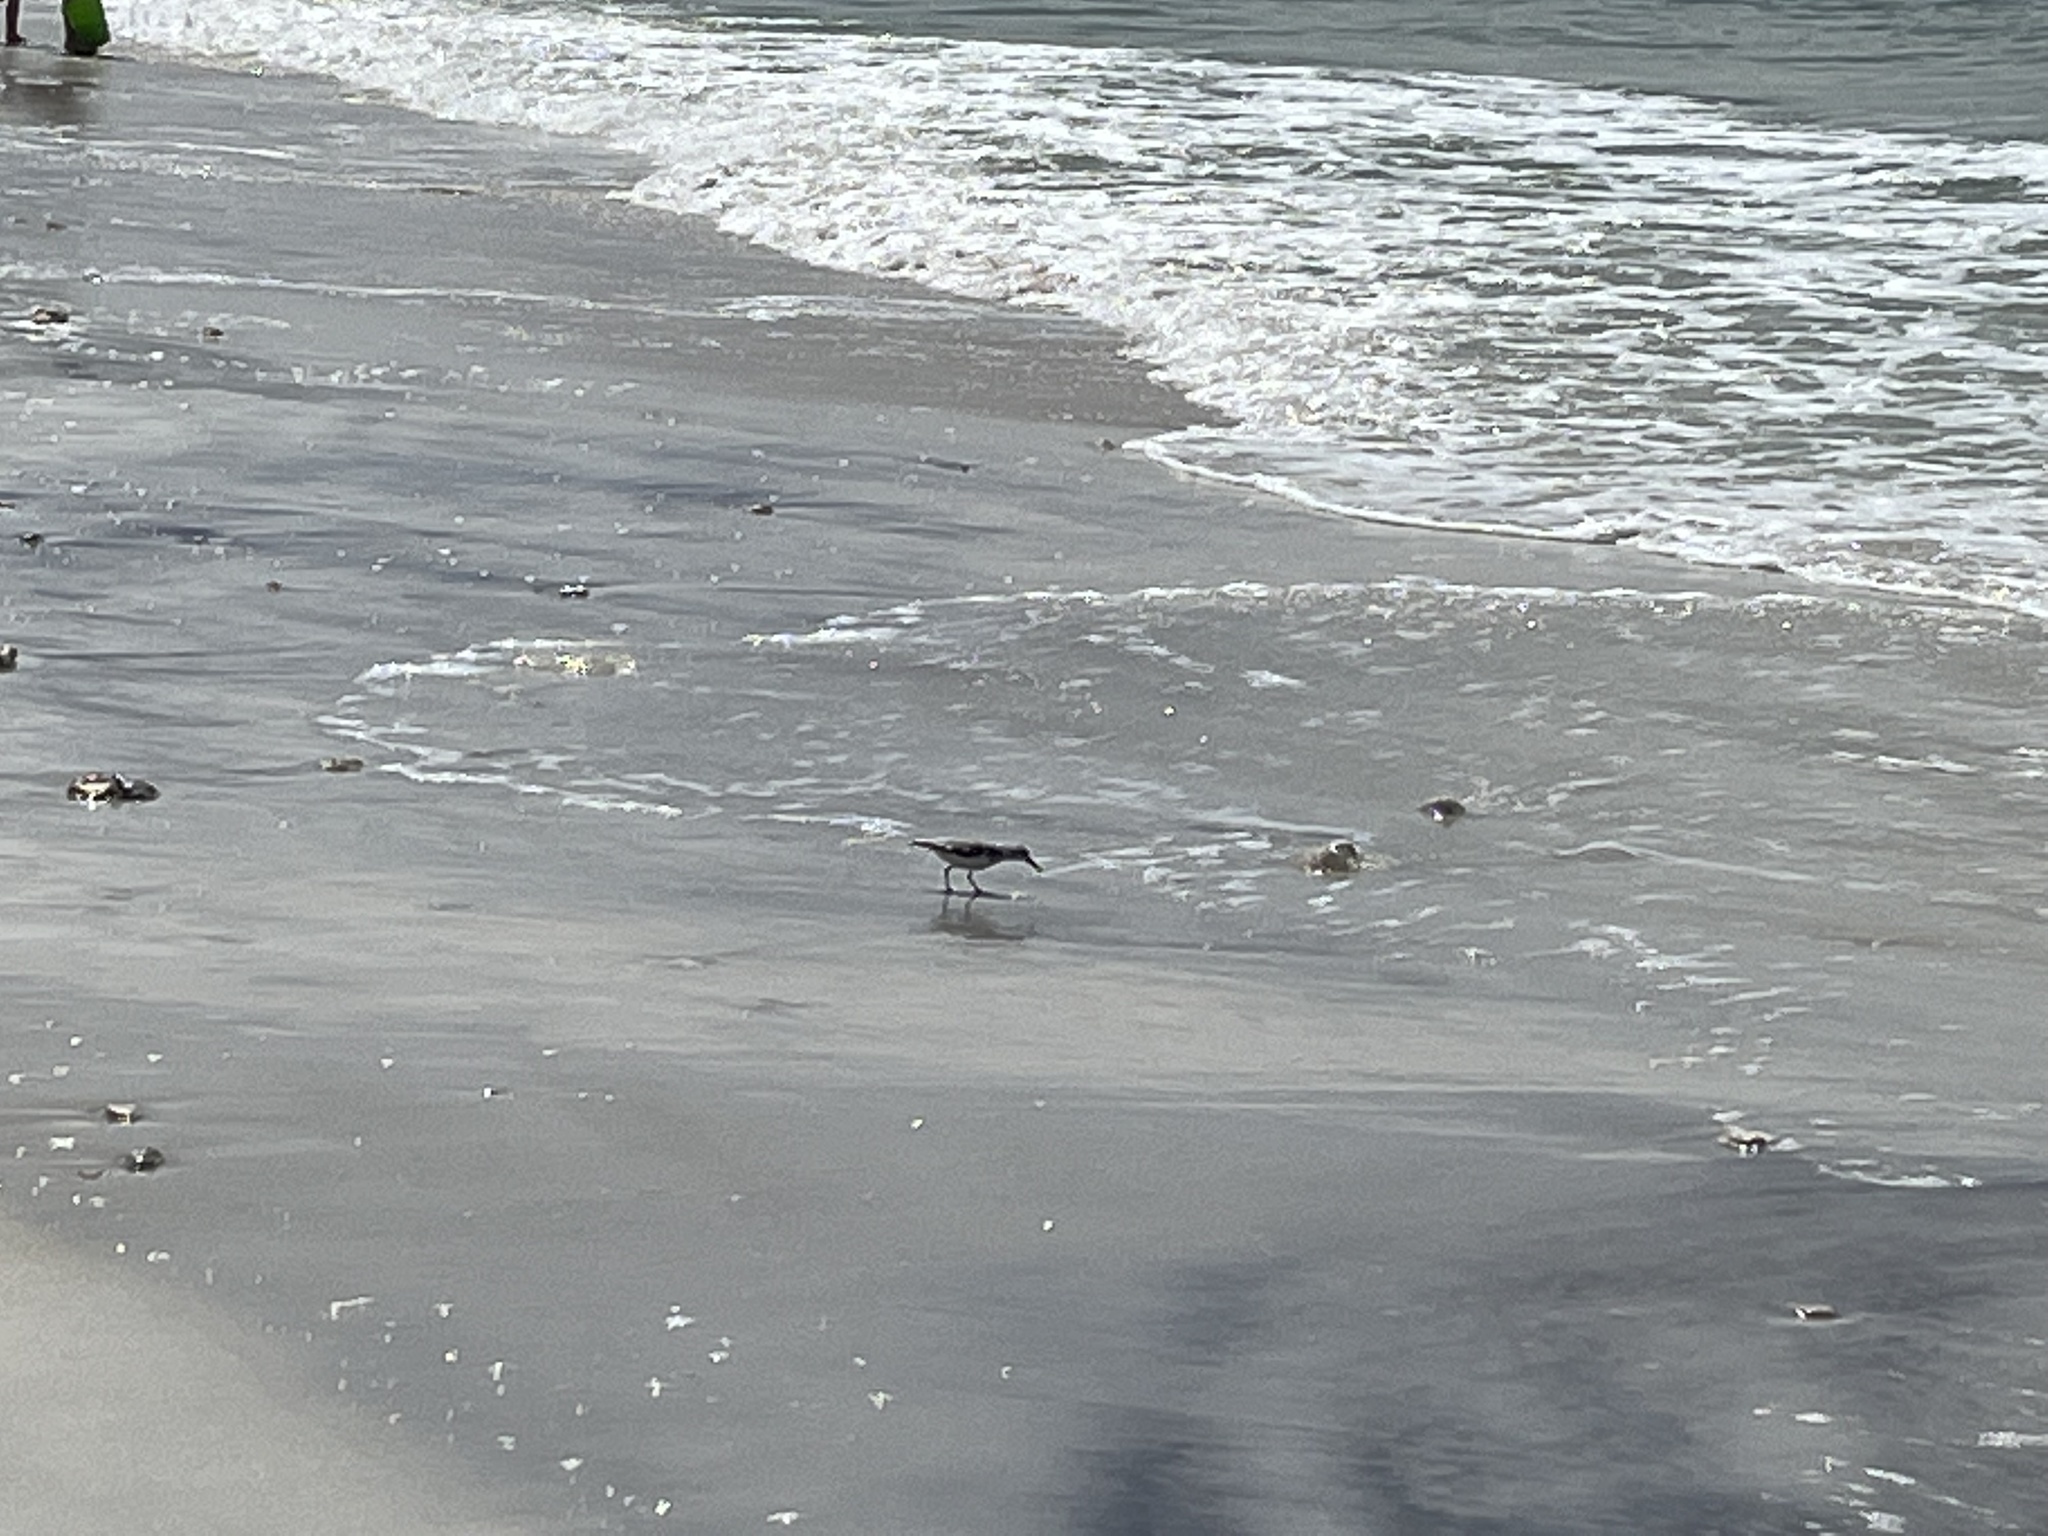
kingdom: Animalia
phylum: Chordata
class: Aves
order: Charadriiformes
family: Scolopacidae
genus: Calidris
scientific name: Calidris alba
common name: Sanderling
